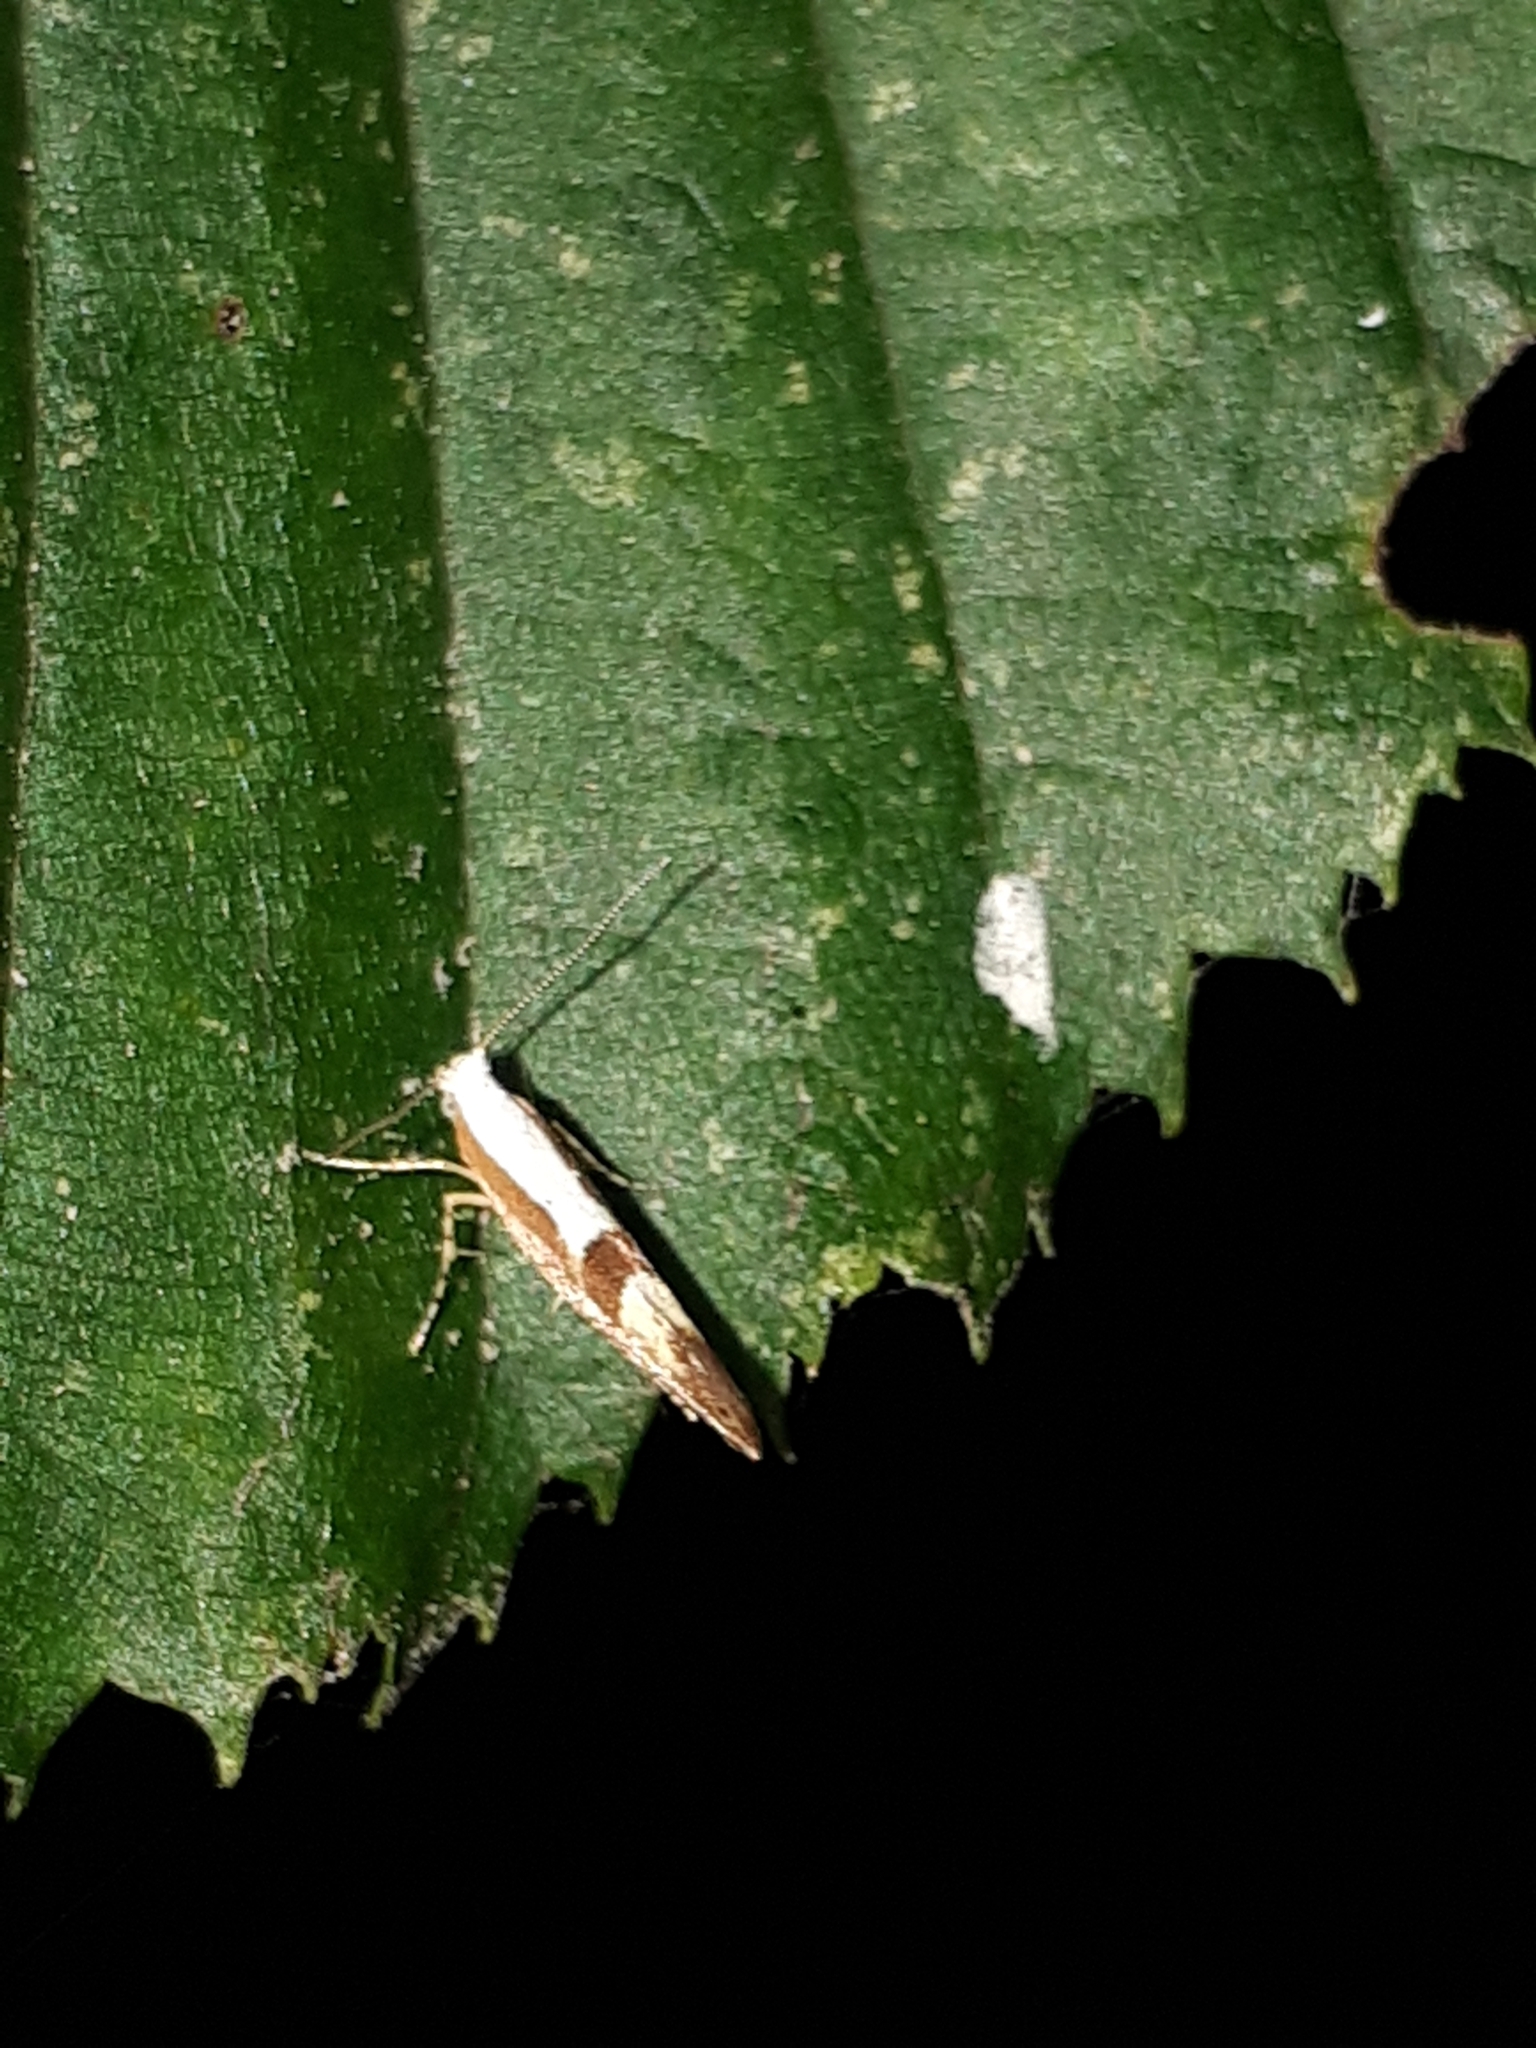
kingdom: Animalia
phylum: Arthropoda
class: Insecta
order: Lepidoptera
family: Argyresthiidae
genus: Argyresthia
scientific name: Argyresthia pruniella
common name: Cherry fruit moth
